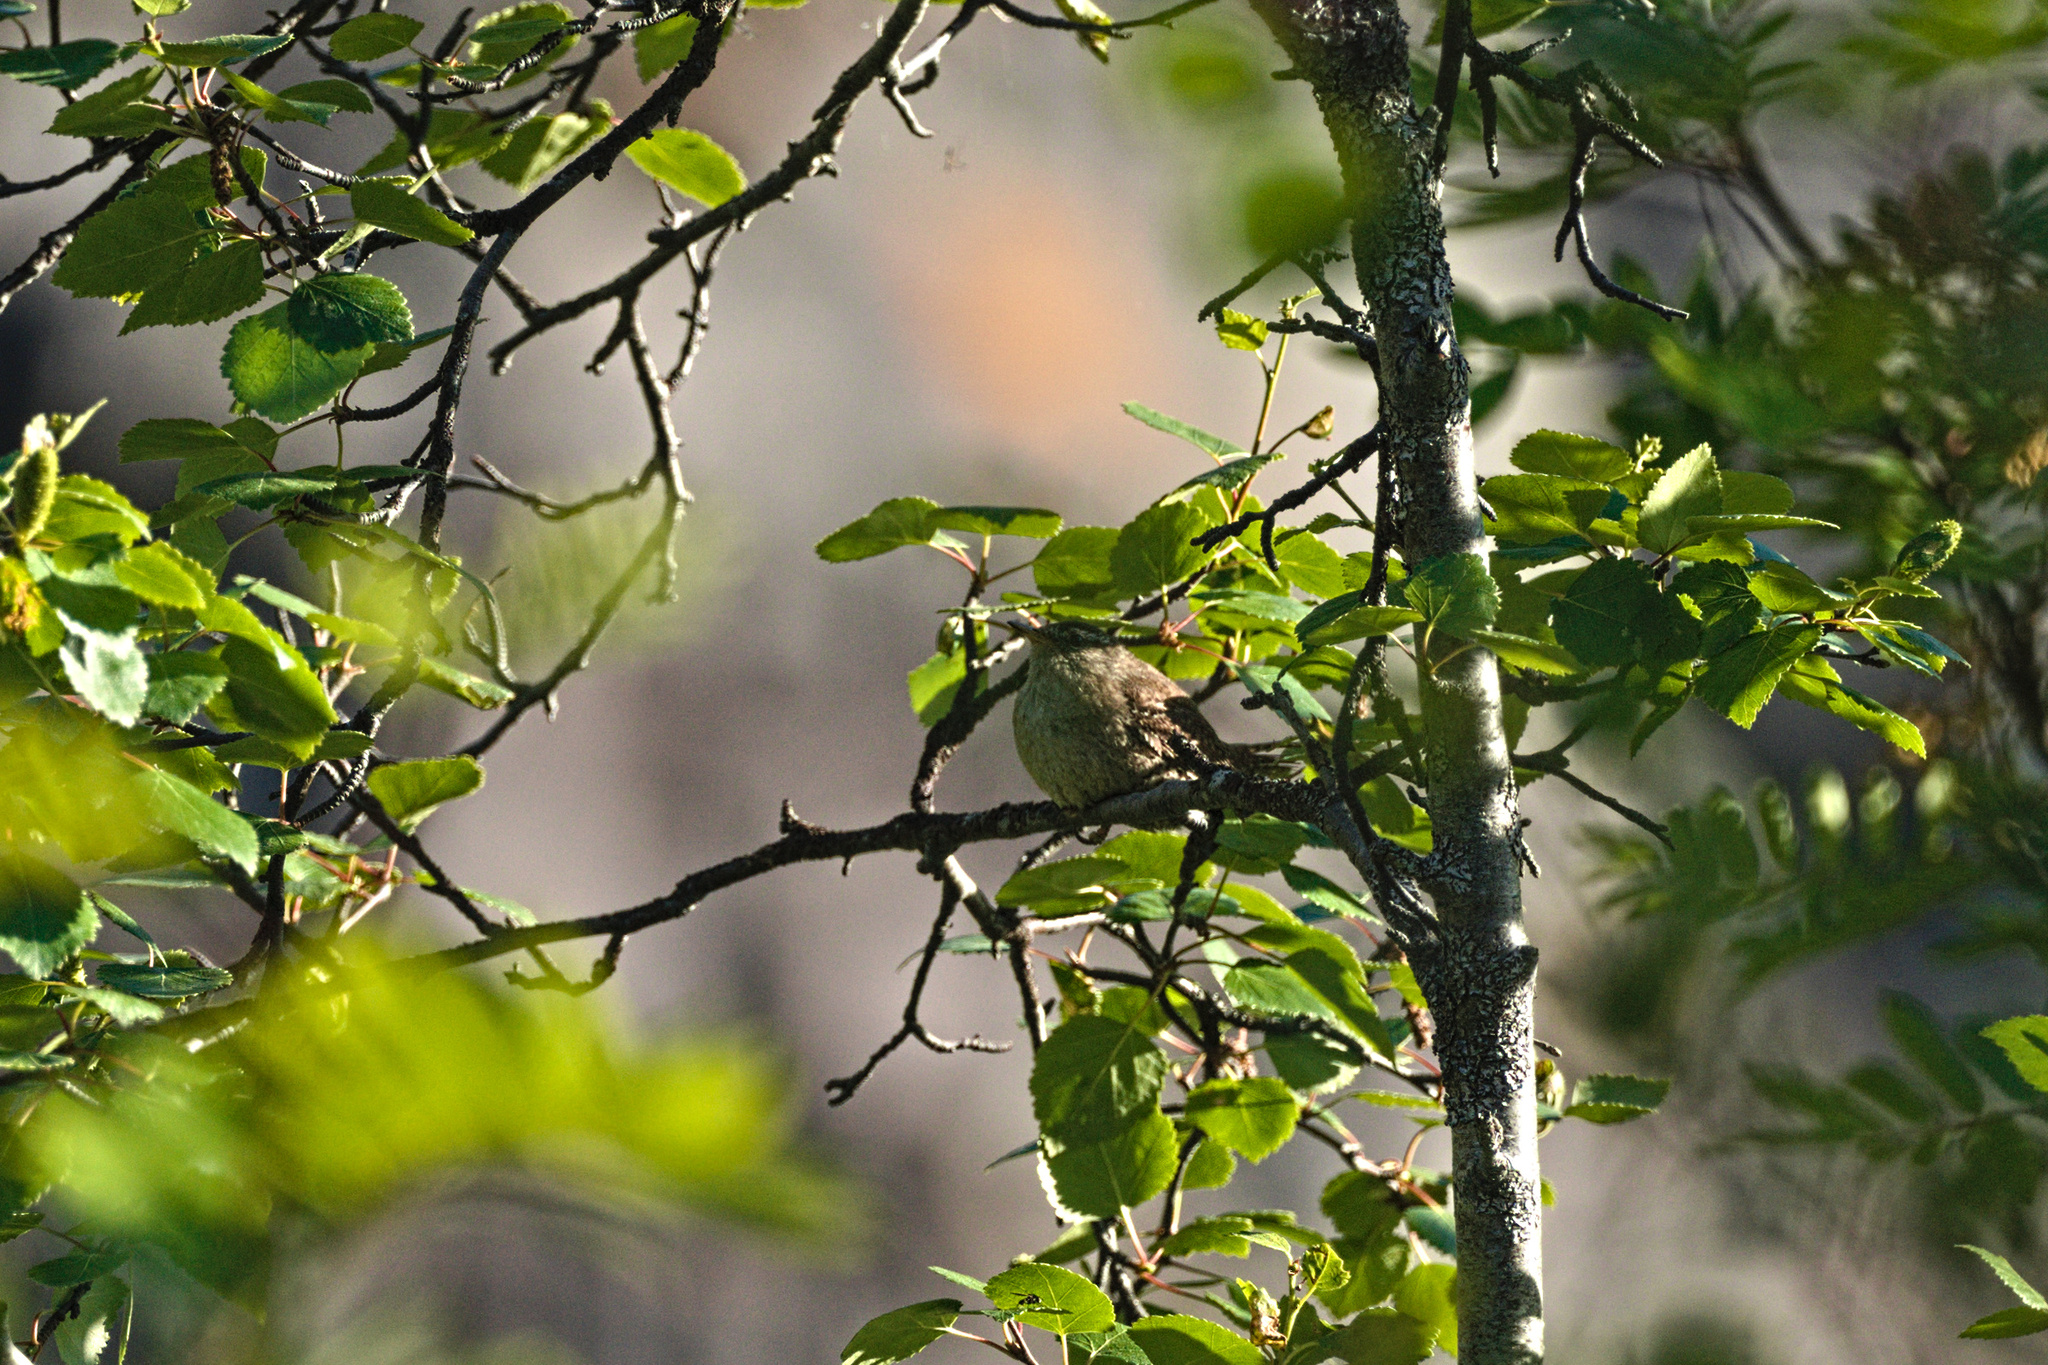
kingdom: Plantae
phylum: Tracheophyta
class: Magnoliopsida
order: Fagales
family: Betulaceae
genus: Betula
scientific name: Betula pubescens
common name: Downy birch
